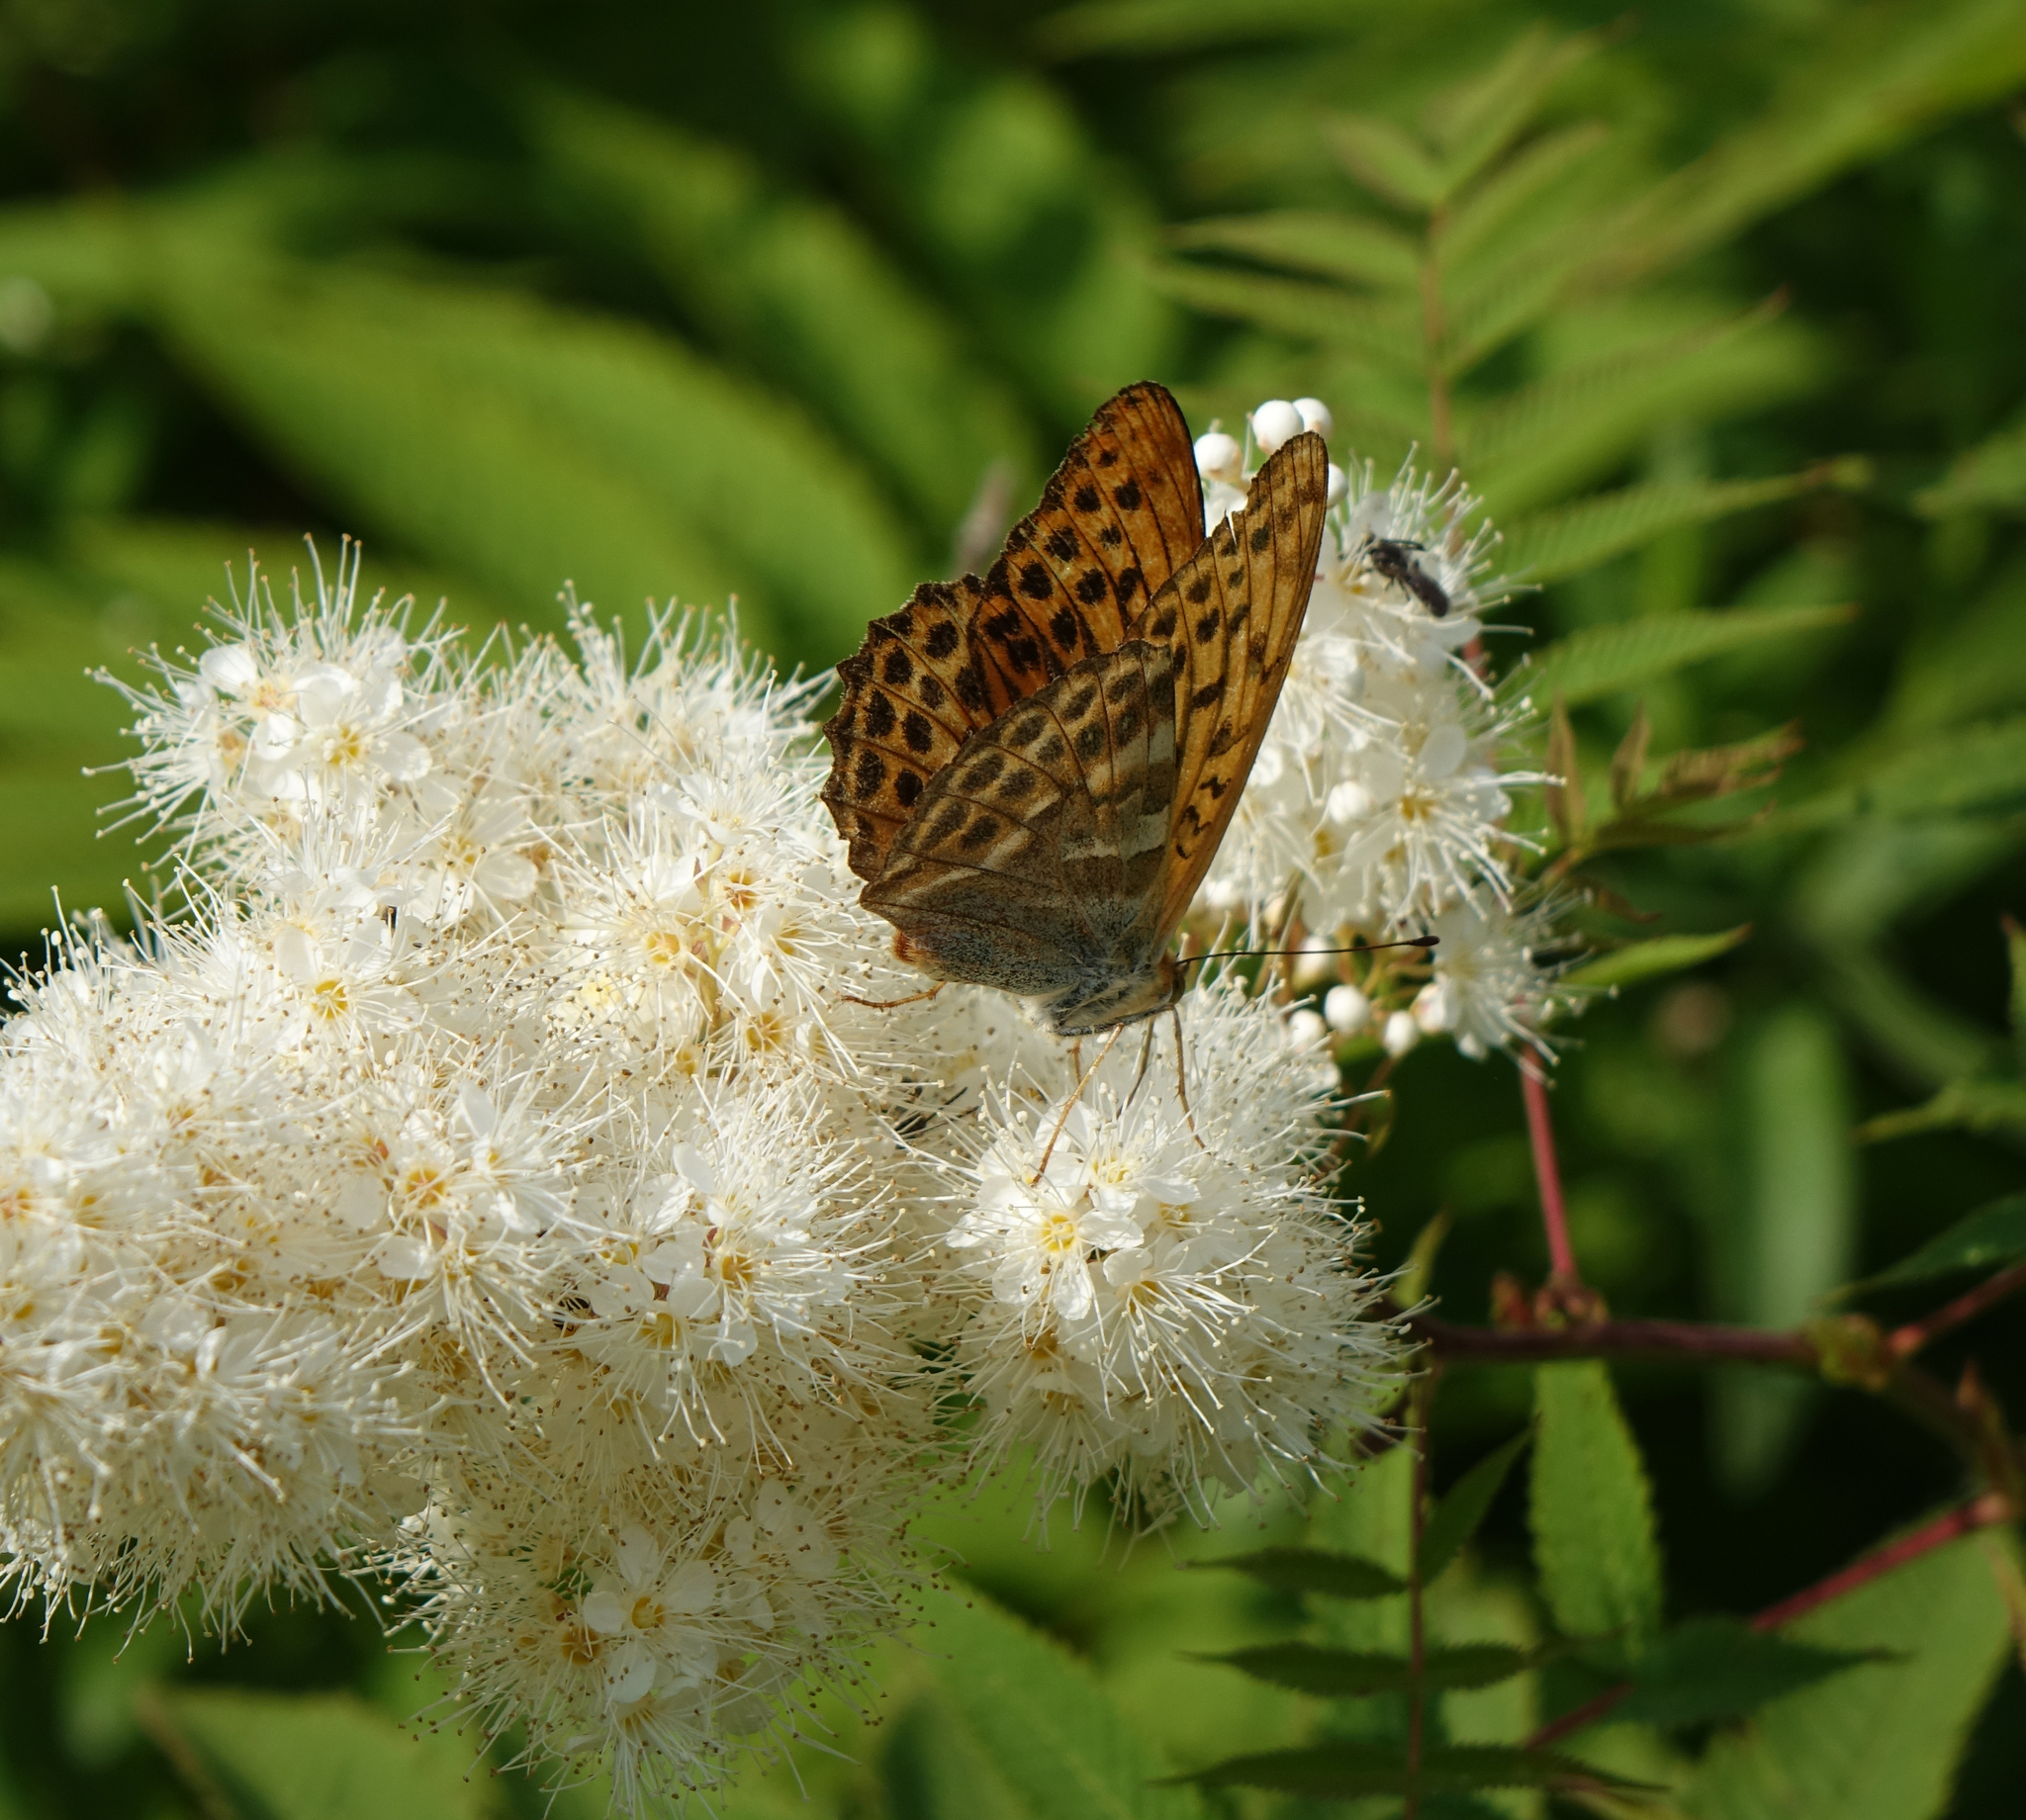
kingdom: Animalia
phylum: Arthropoda
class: Insecta
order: Lepidoptera
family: Nymphalidae
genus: Argynnis
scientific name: Argynnis paphia
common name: Silver-washed fritillary
